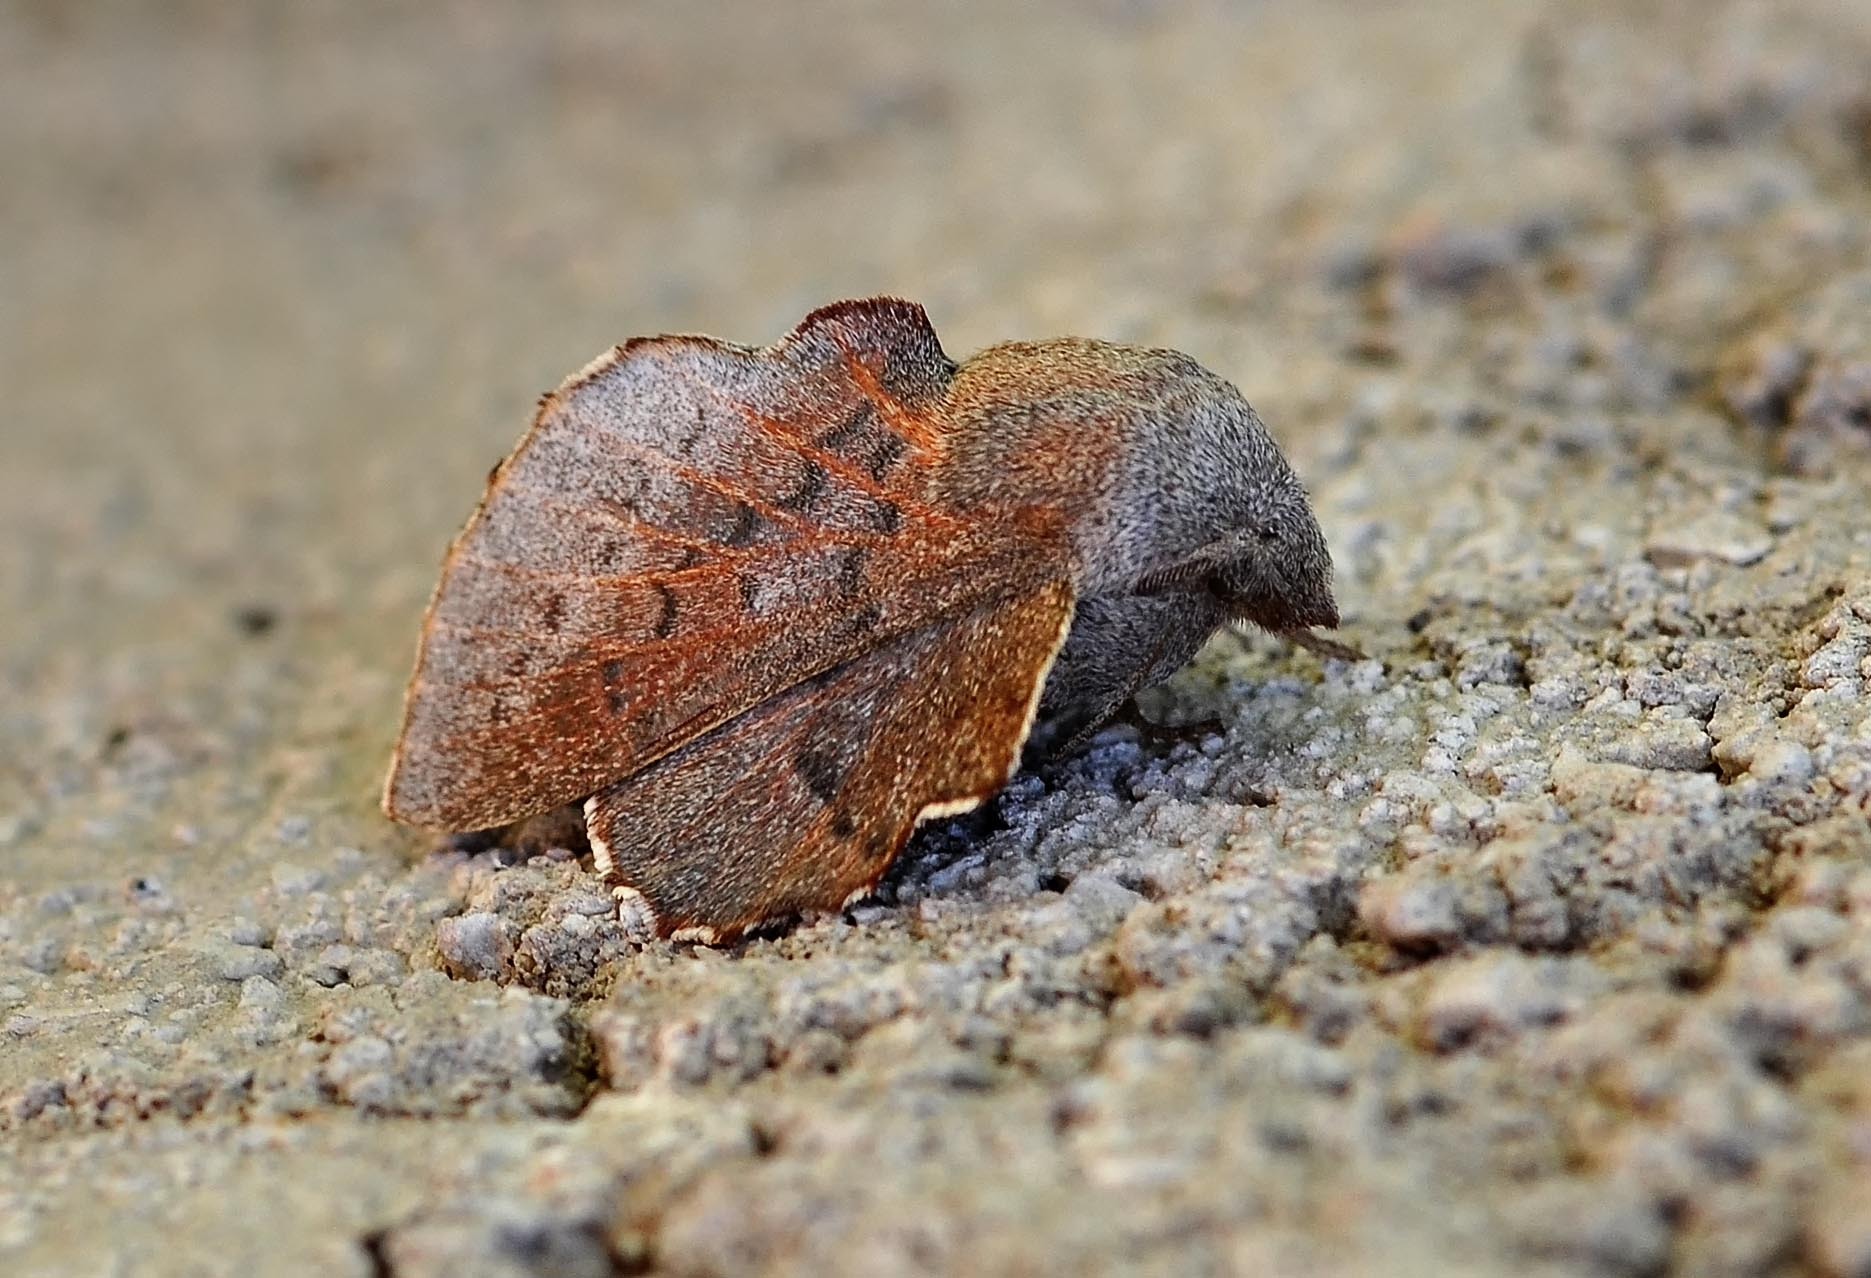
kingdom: Animalia
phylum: Arthropoda
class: Insecta
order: Lepidoptera
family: Lasiocampidae
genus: Phyllodesma
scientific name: Phyllodesma kermesifolia
